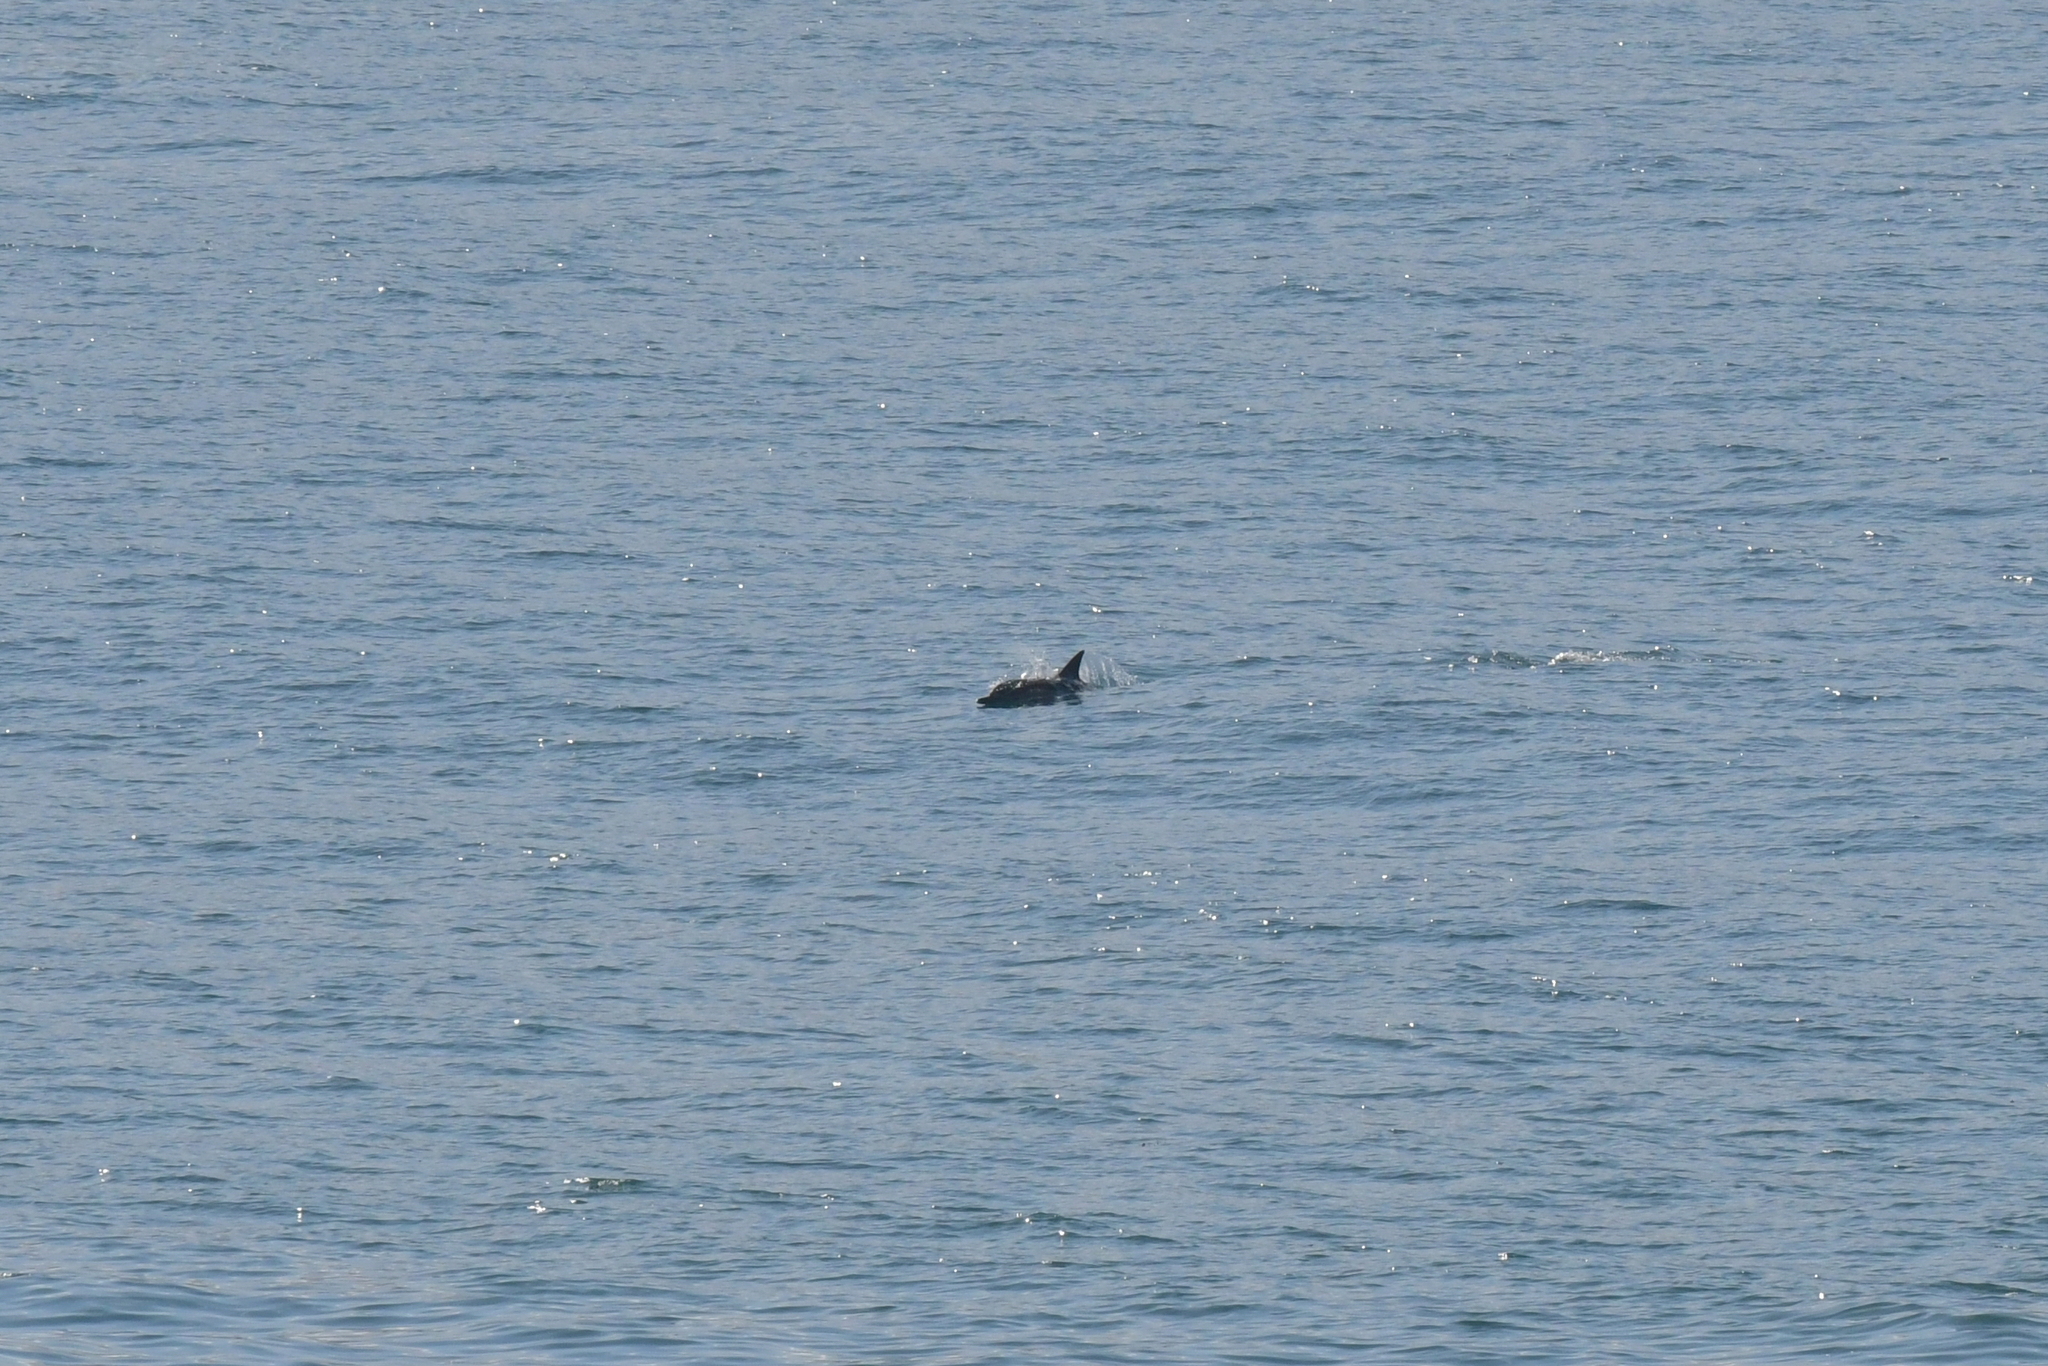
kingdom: Animalia
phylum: Chordata
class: Mammalia
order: Cetacea
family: Delphinidae
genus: Delphinus
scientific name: Delphinus delphis
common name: Common dolphin
